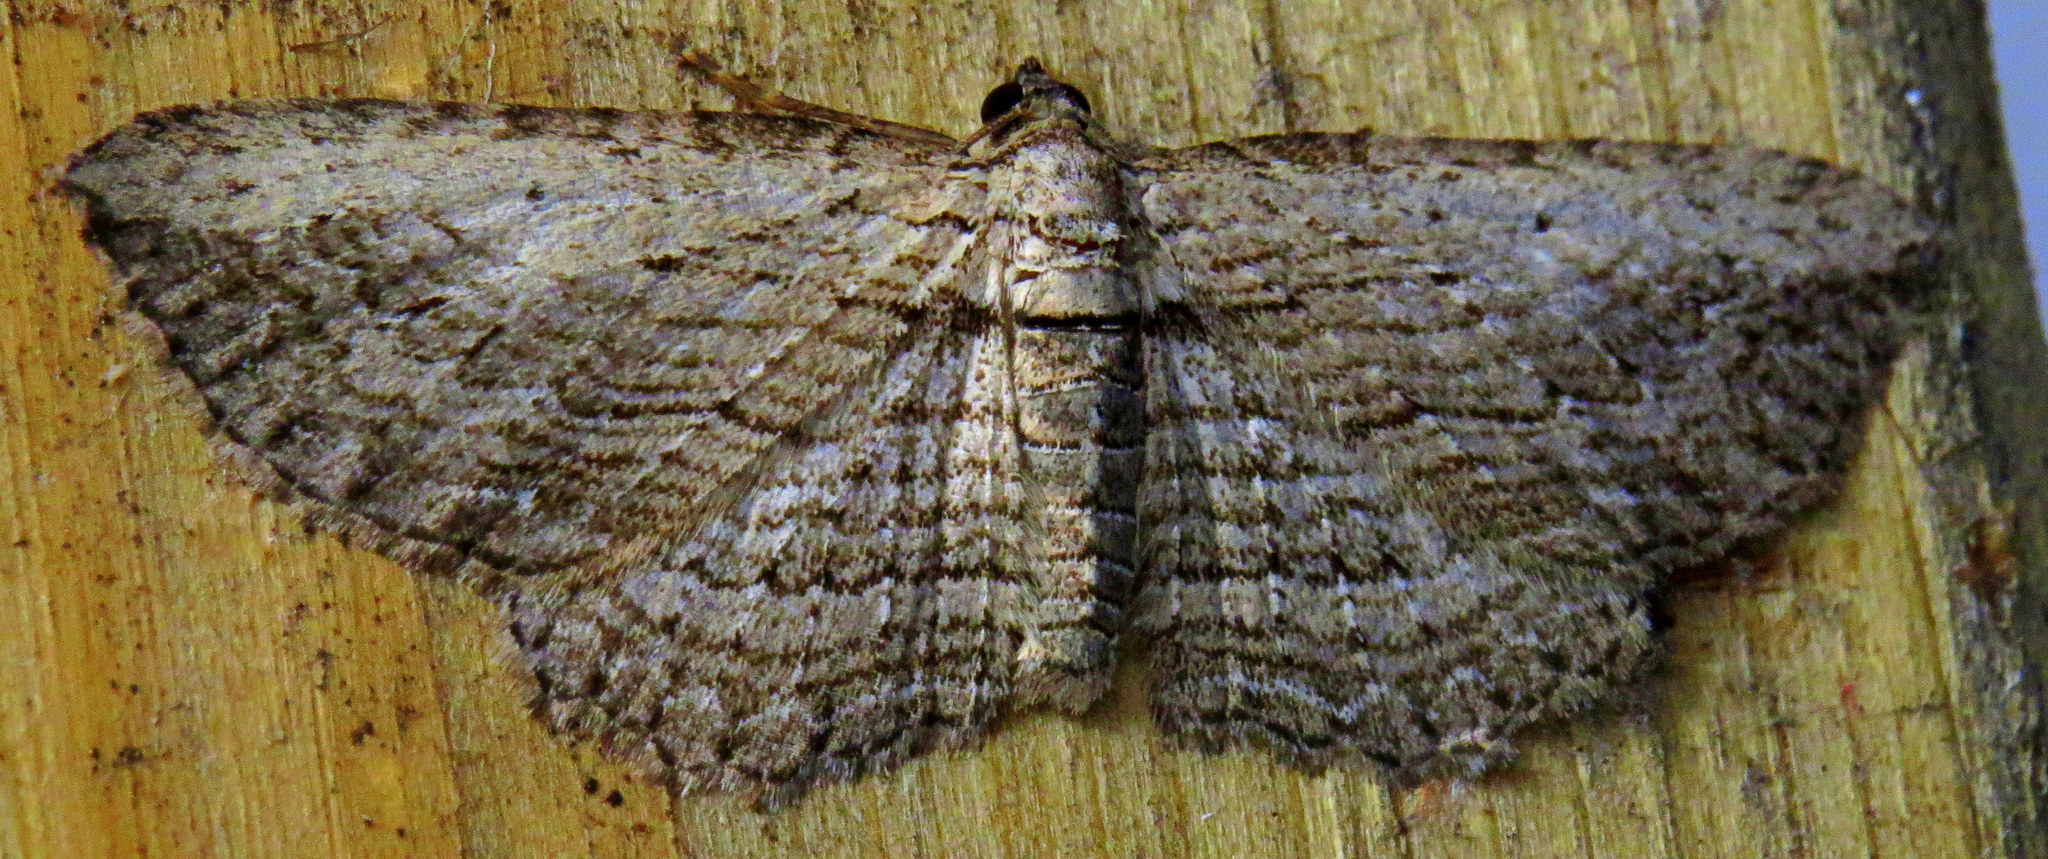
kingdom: Animalia
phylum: Arthropoda
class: Insecta
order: Lepidoptera
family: Geometridae
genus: Horisme
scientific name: Horisme intestinata
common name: Brown bark carpet
